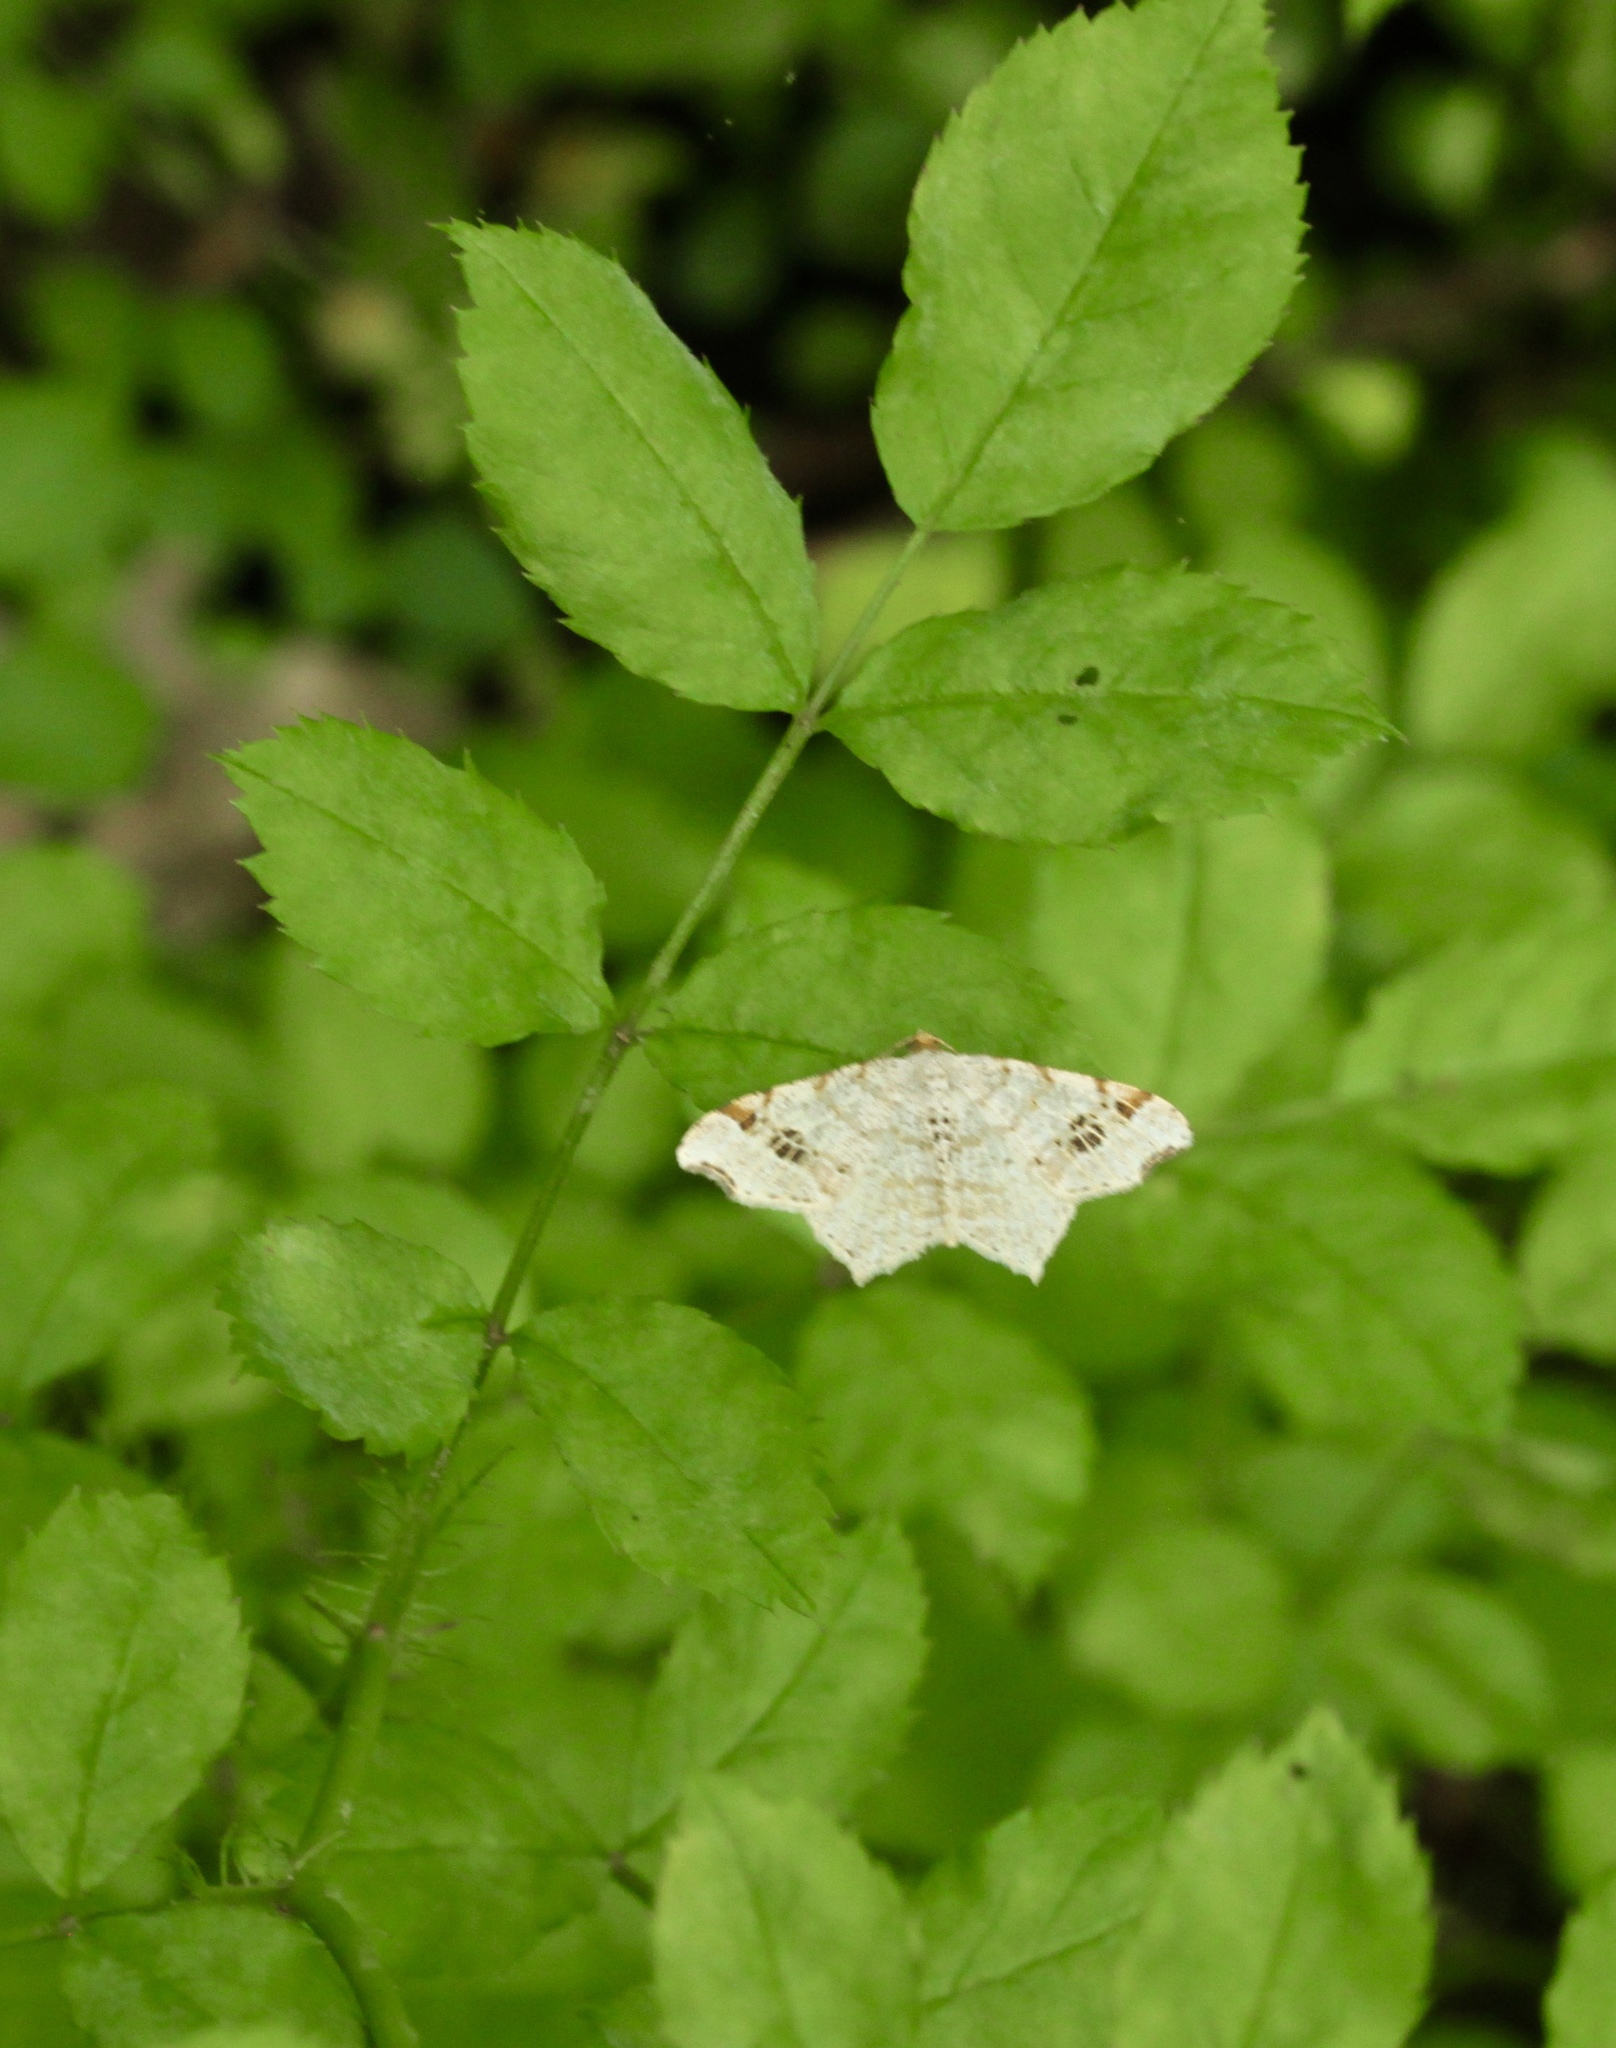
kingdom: Animalia
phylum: Arthropoda
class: Insecta
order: Lepidoptera
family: Geometridae
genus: Macaria
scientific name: Macaria aemulataria
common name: Common angle
